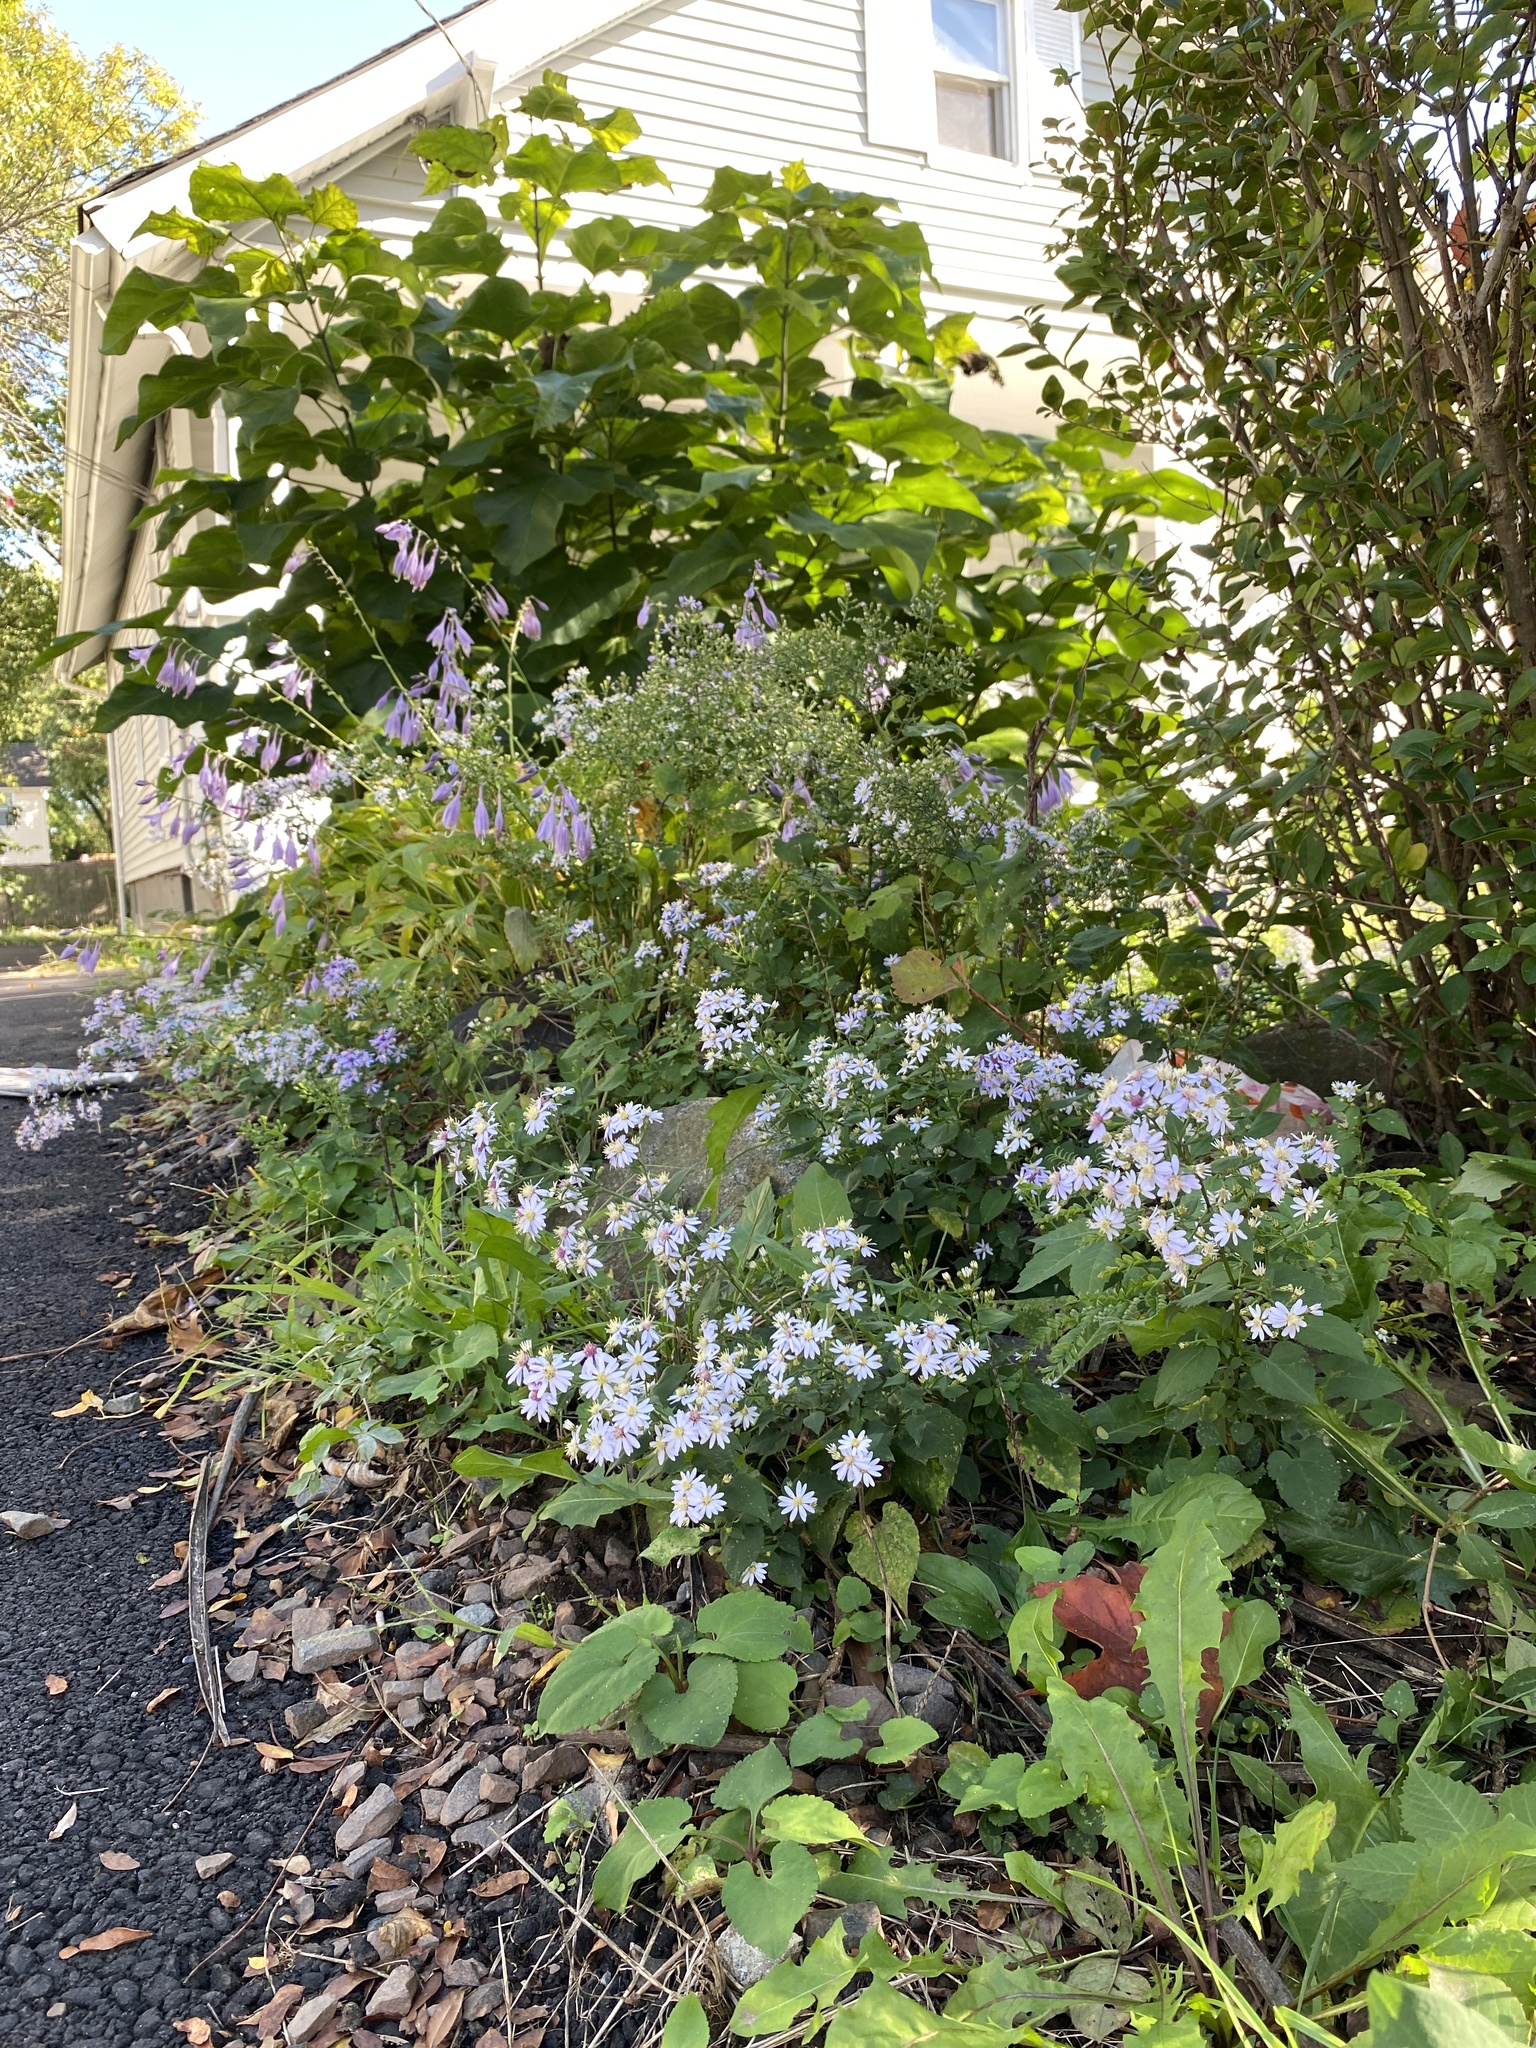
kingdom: Plantae
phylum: Tracheophyta
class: Magnoliopsida
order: Asterales
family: Asteraceae
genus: Symphyotrichum
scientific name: Symphyotrichum cordifolium
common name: Beeweed
